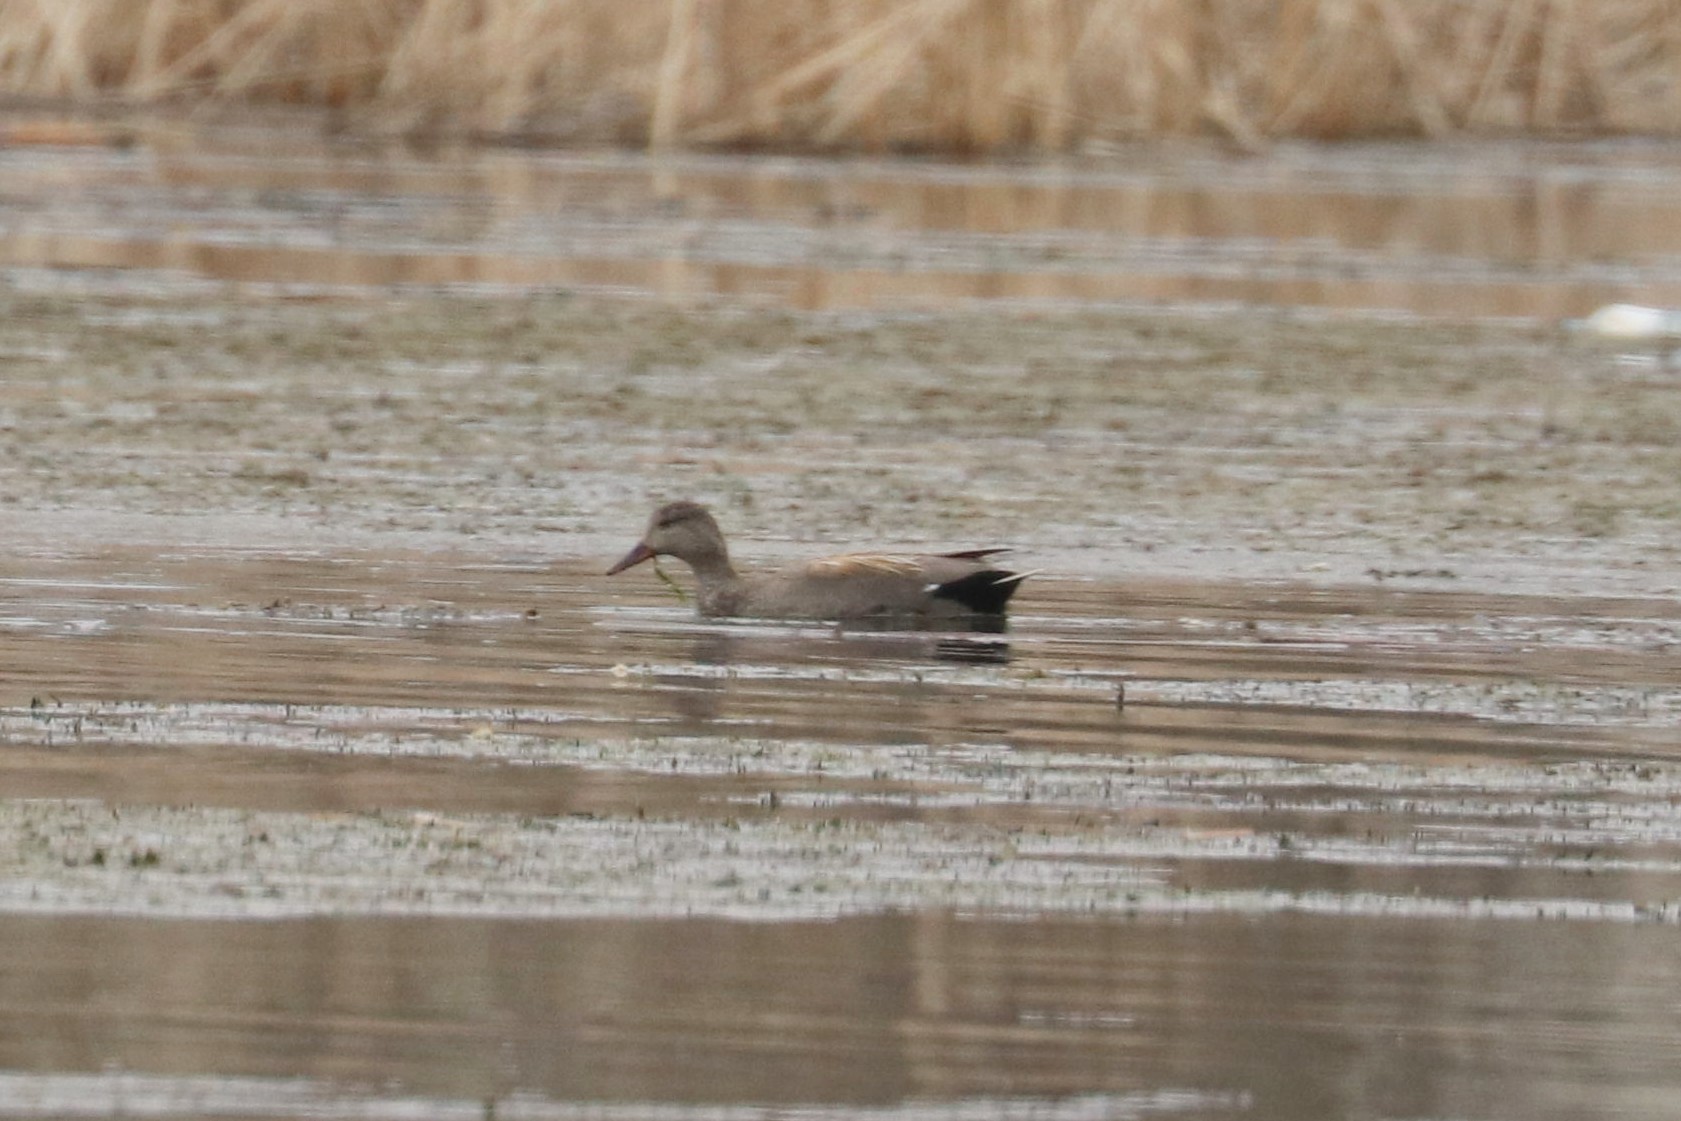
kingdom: Animalia
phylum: Chordata
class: Aves
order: Anseriformes
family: Anatidae
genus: Mareca
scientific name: Mareca strepera
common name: Gadwall
